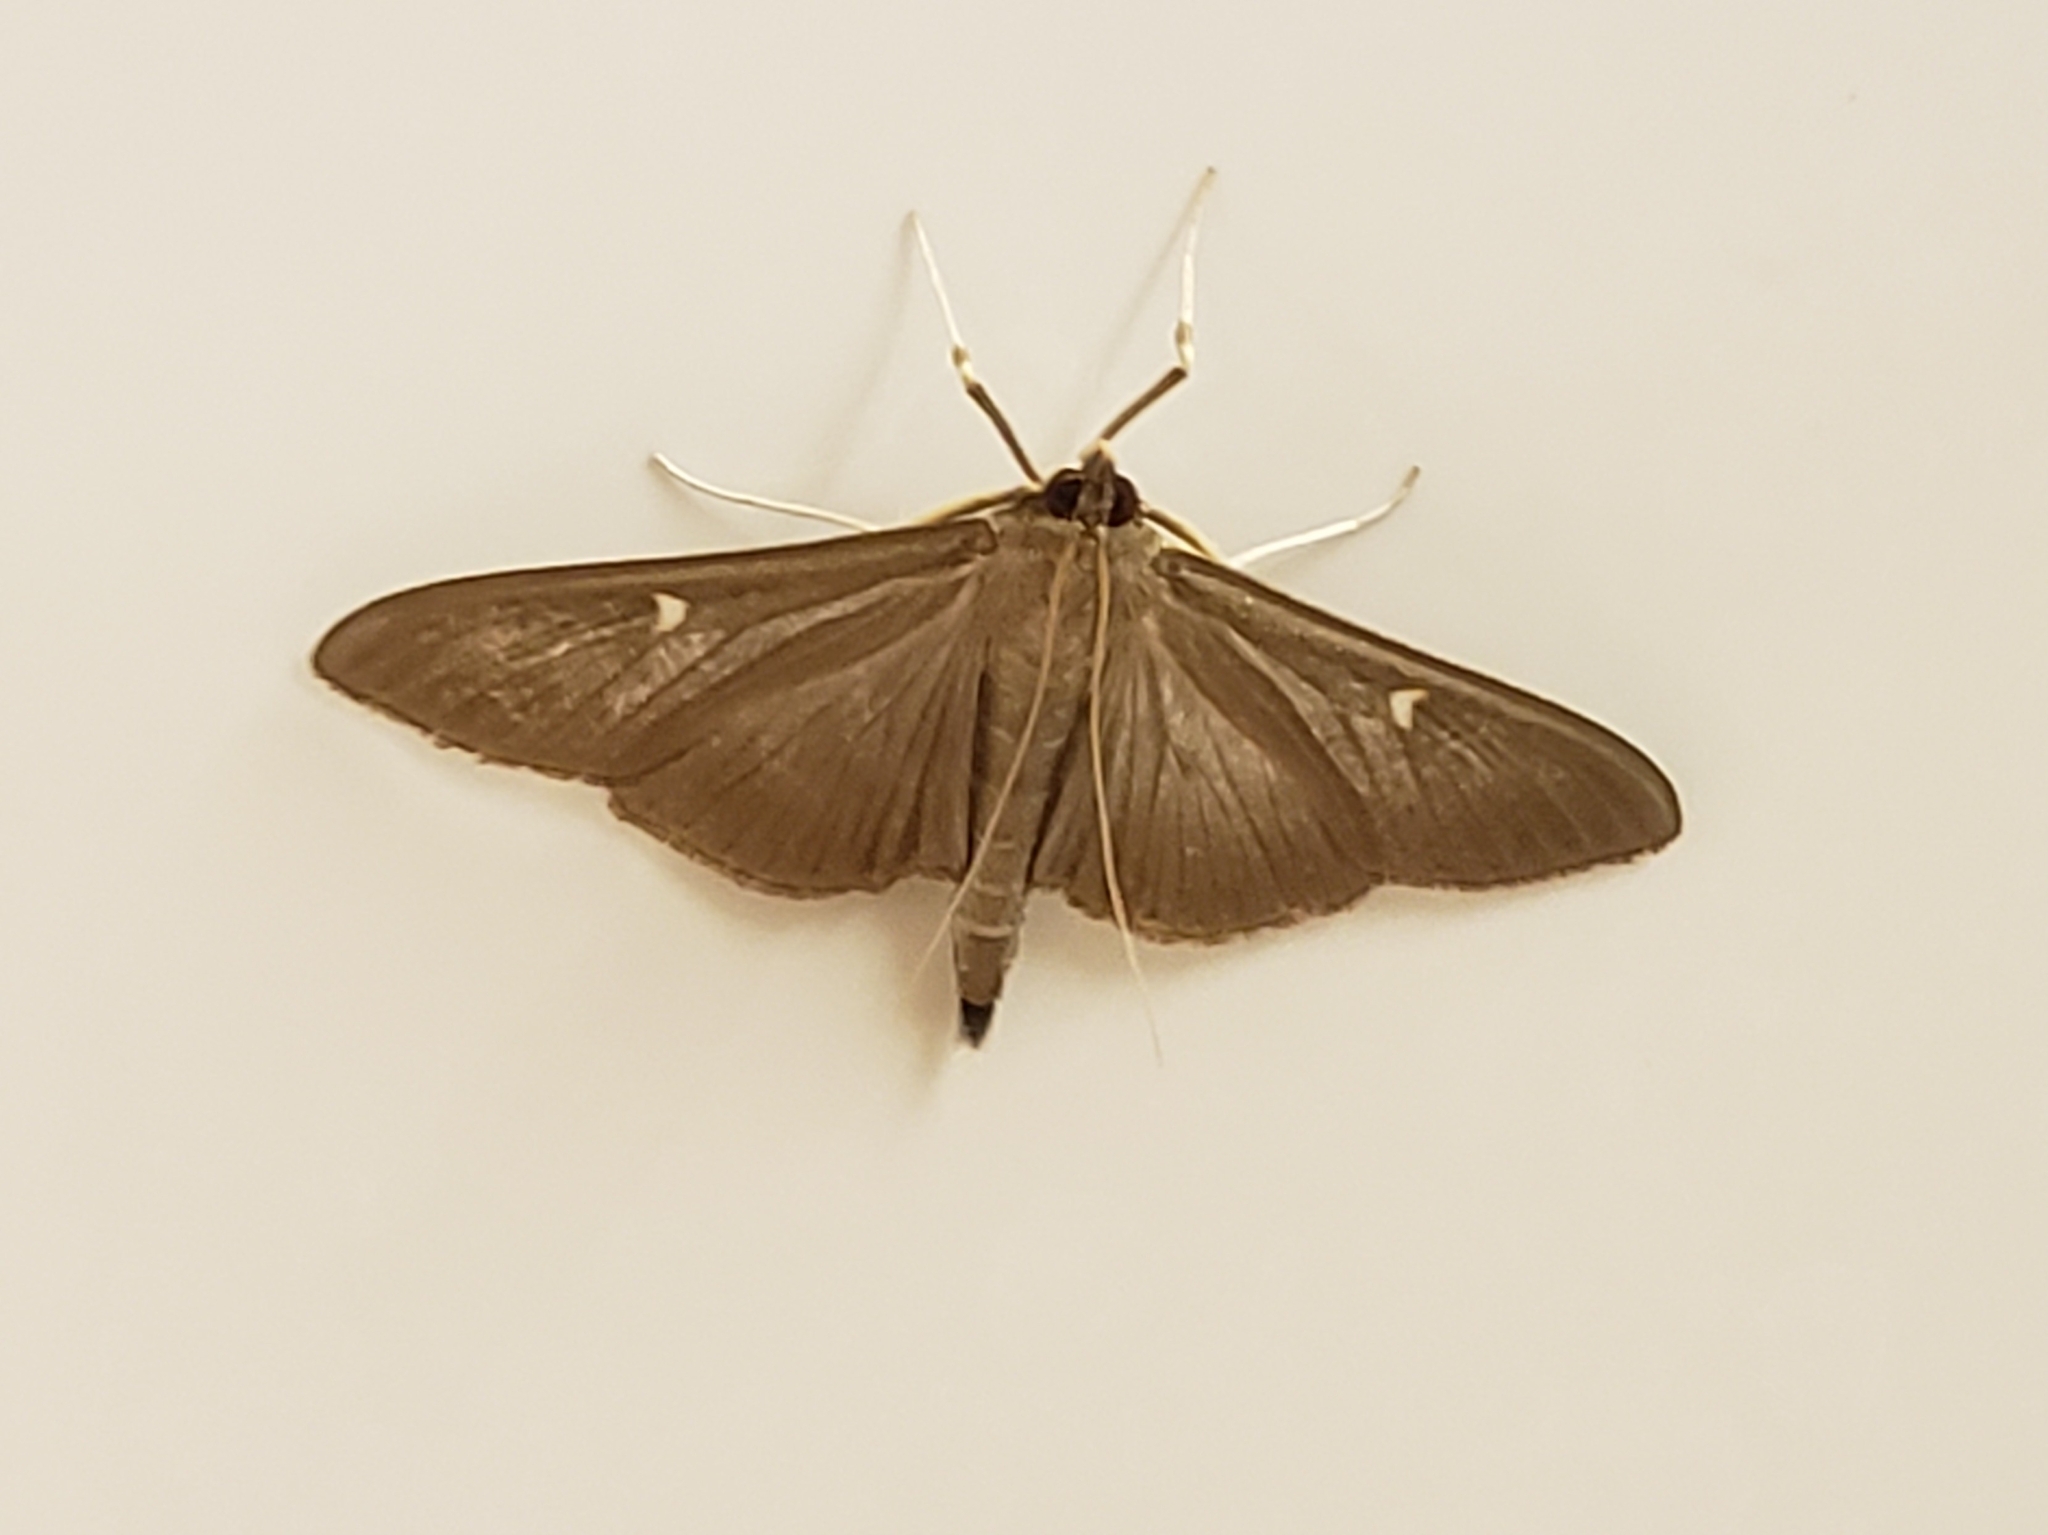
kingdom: Animalia
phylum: Arthropoda
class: Insecta
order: Lepidoptera
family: Crambidae
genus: Cydalima
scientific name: Cydalima perspectalis
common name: Box tree moth
